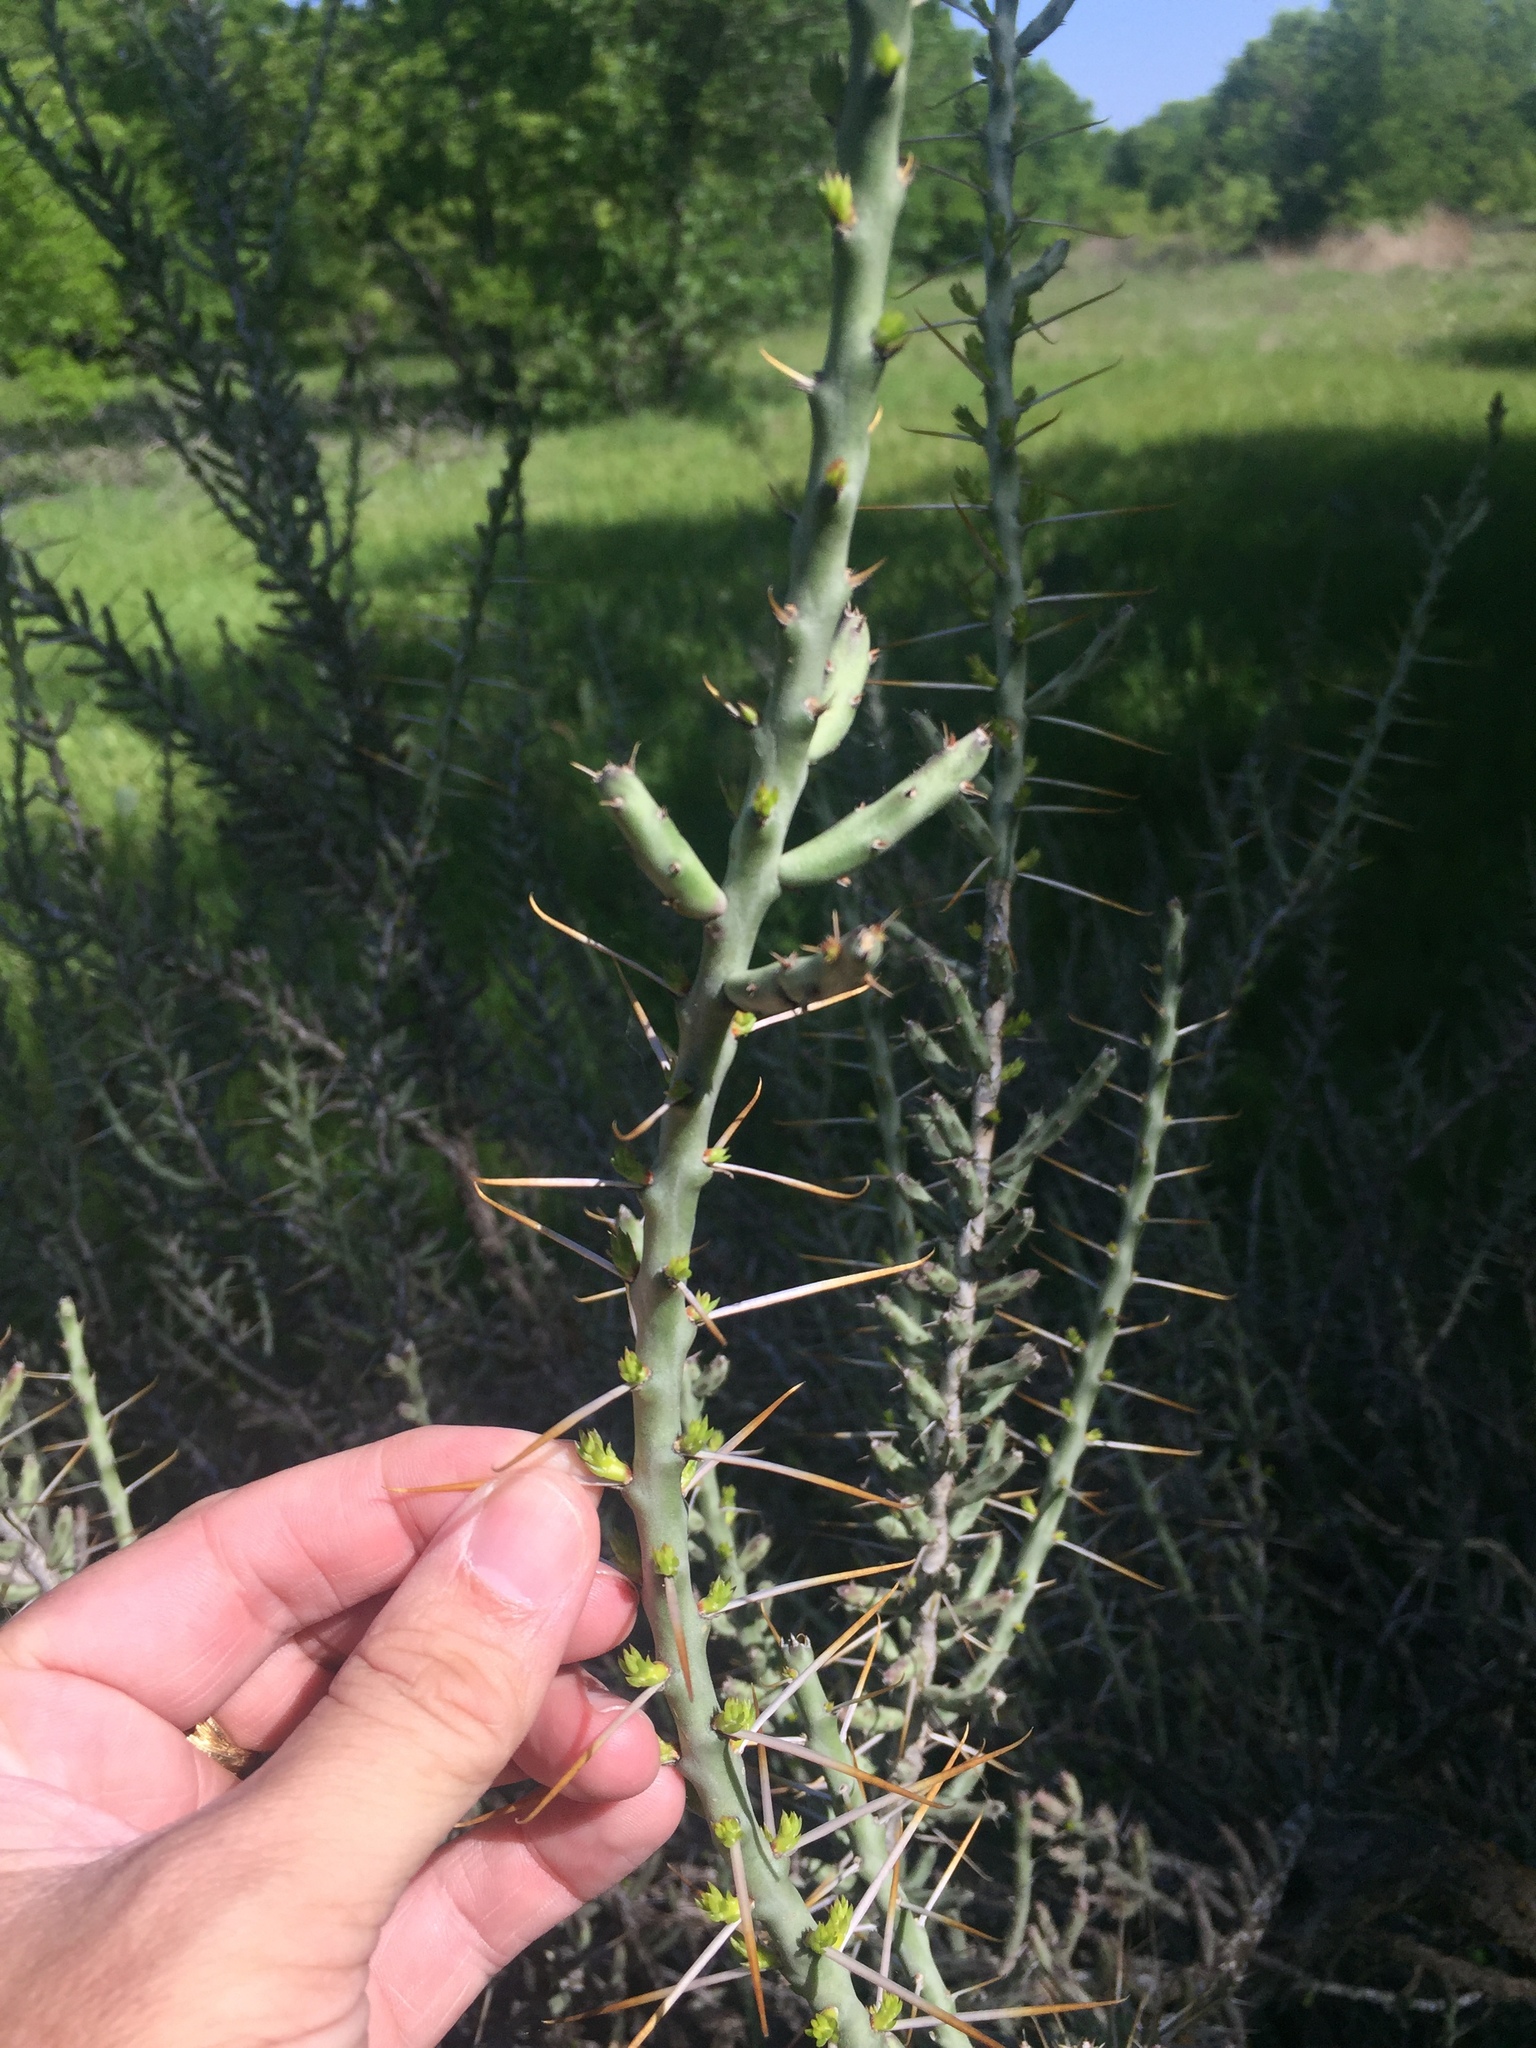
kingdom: Plantae
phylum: Tracheophyta
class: Magnoliopsida
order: Caryophyllales
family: Cactaceae
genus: Cylindropuntia
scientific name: Cylindropuntia leptocaulis
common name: Christmas cactus
